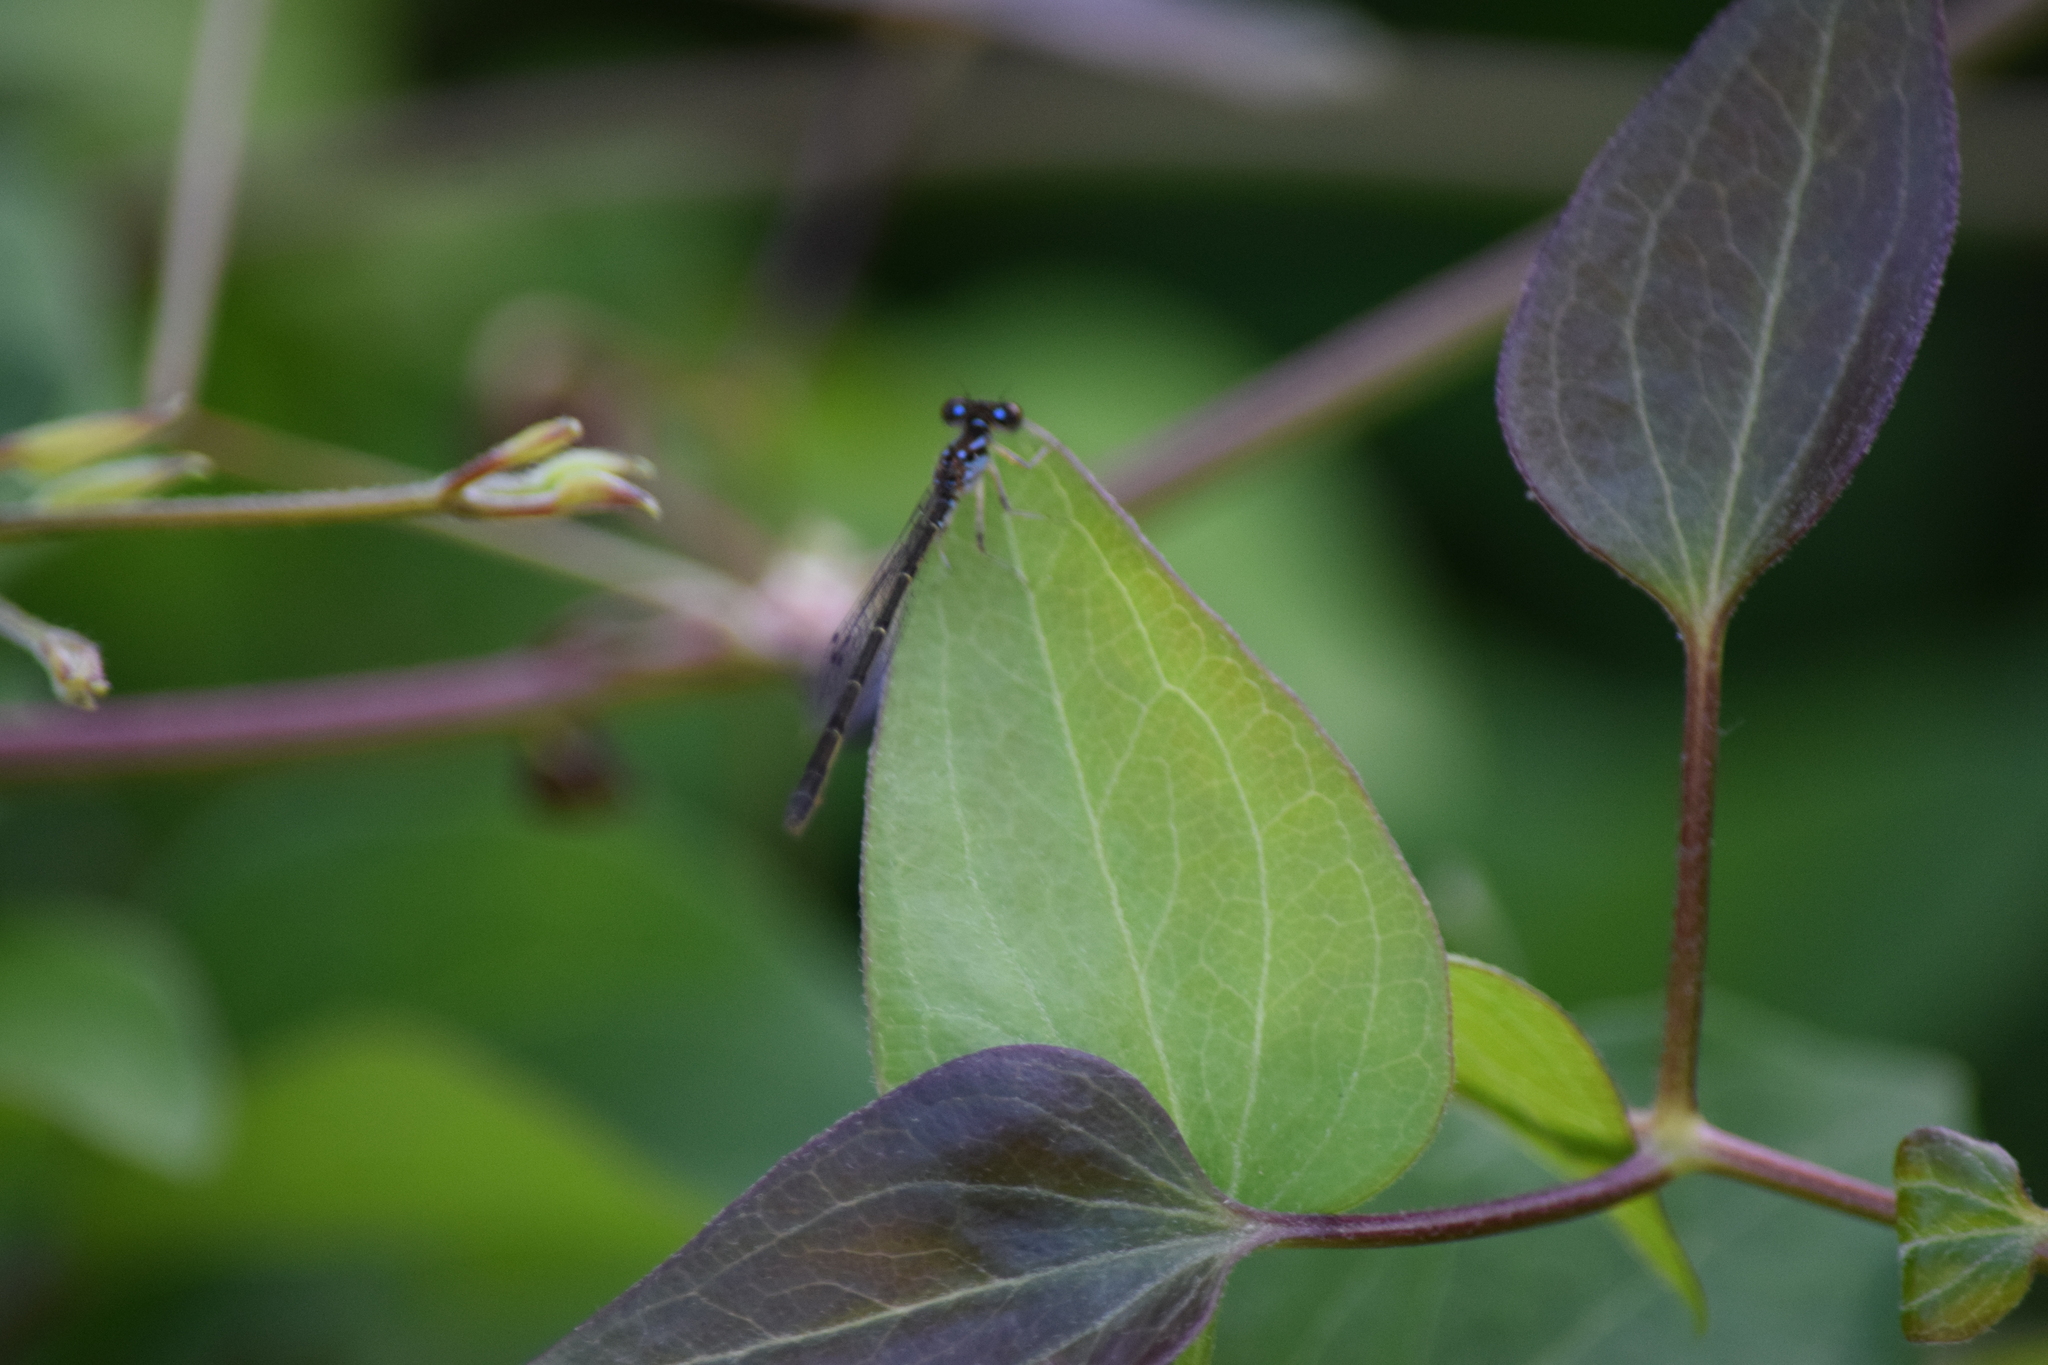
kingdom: Animalia
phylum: Arthropoda
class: Insecta
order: Odonata
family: Coenagrionidae
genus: Ischnura
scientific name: Ischnura posita
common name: Fragile forktail
